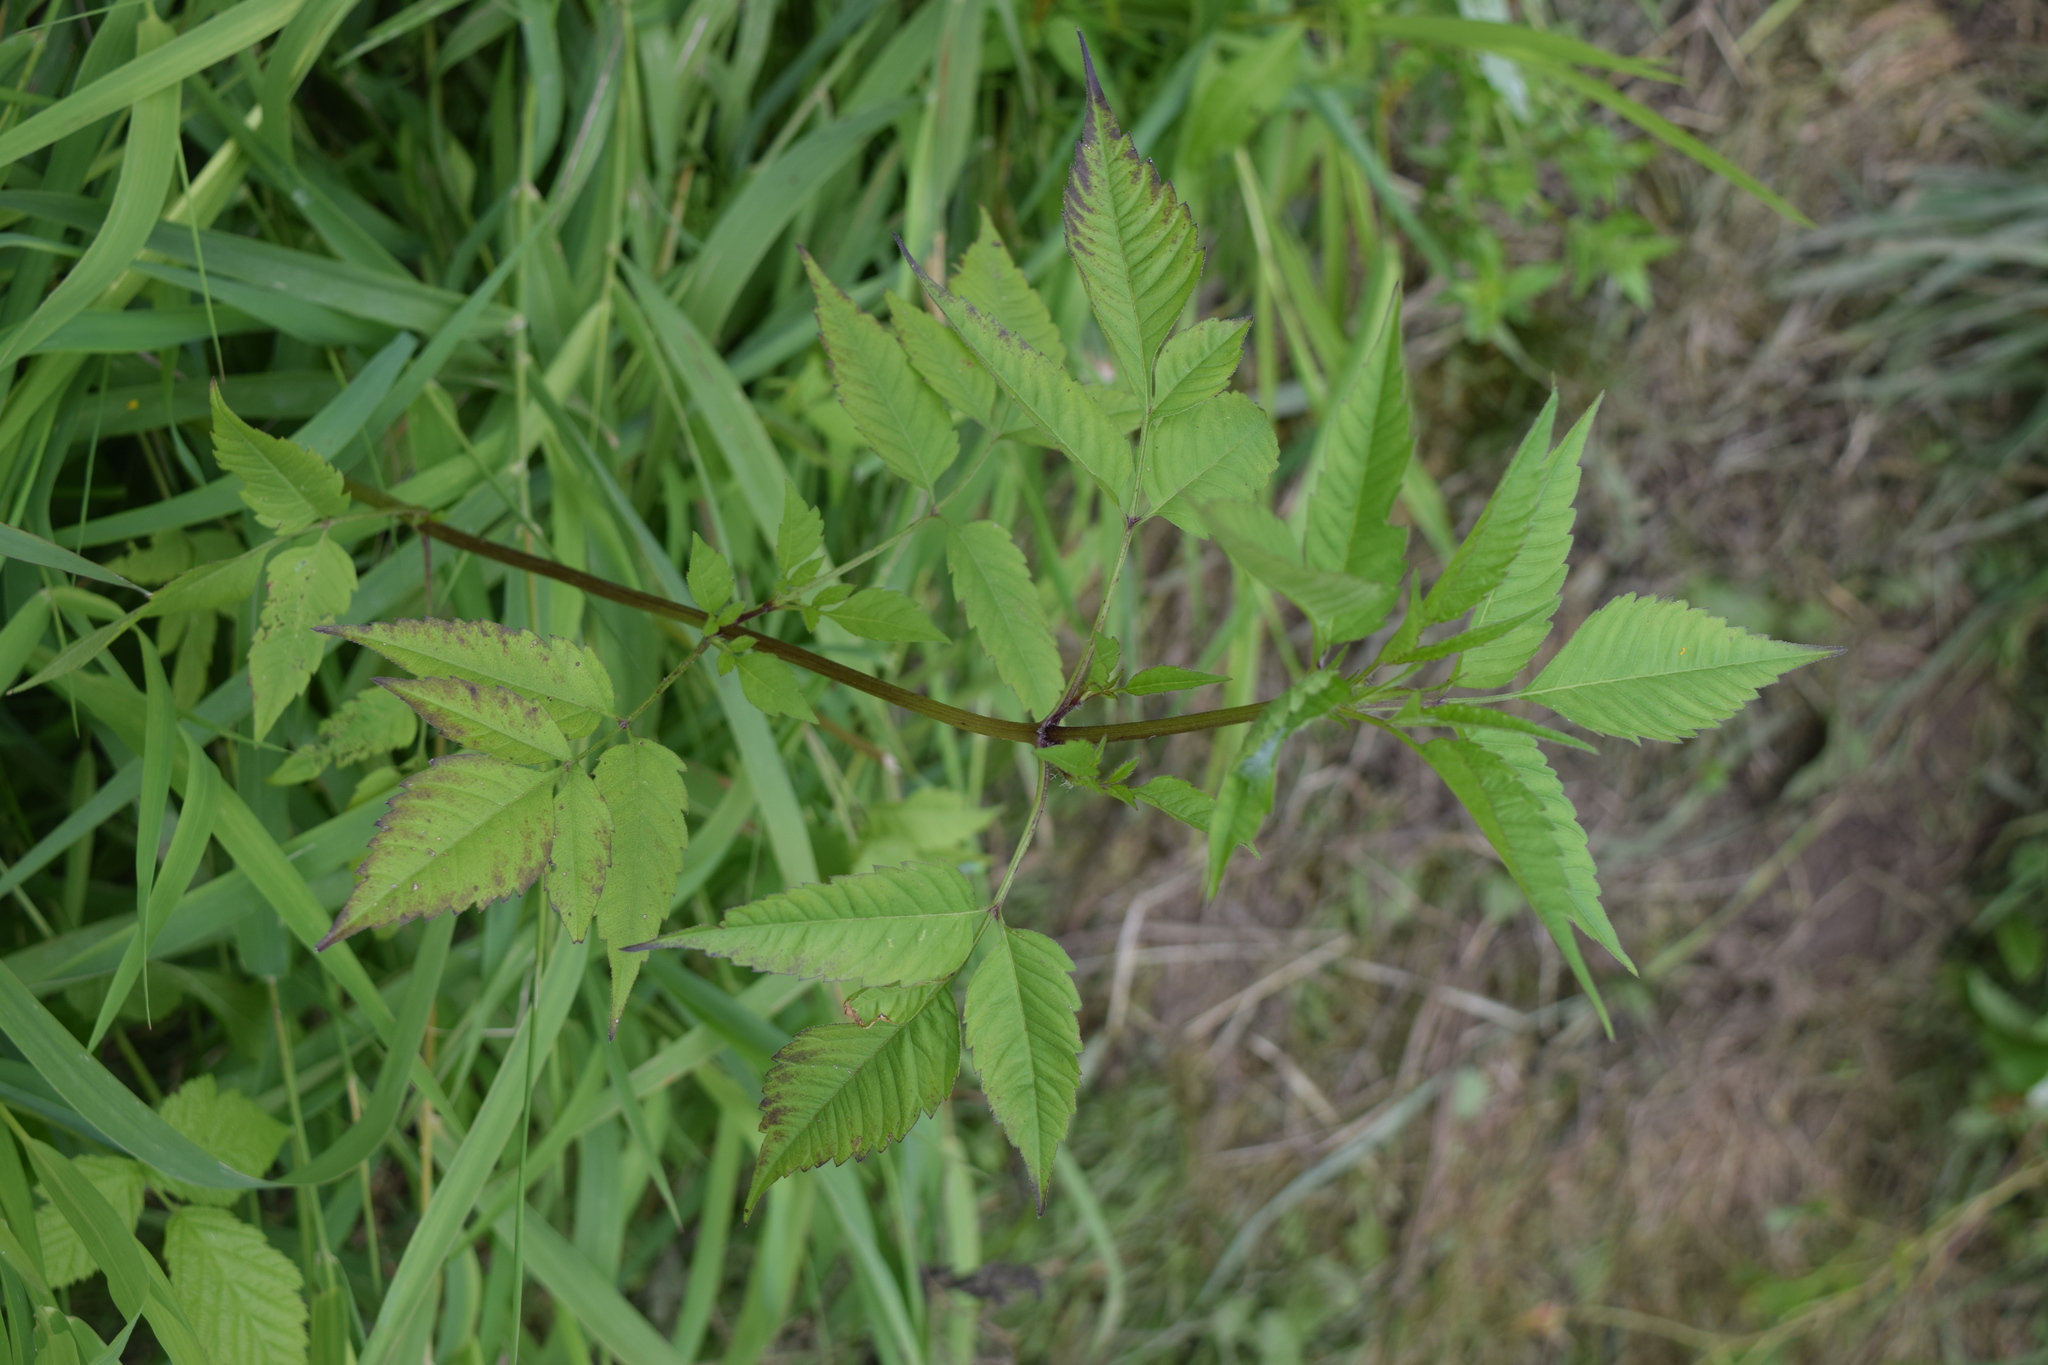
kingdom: Plantae
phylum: Tracheophyta
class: Magnoliopsida
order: Asterales
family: Asteraceae
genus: Bidens
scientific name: Bidens frondosa
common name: Beggarticks
